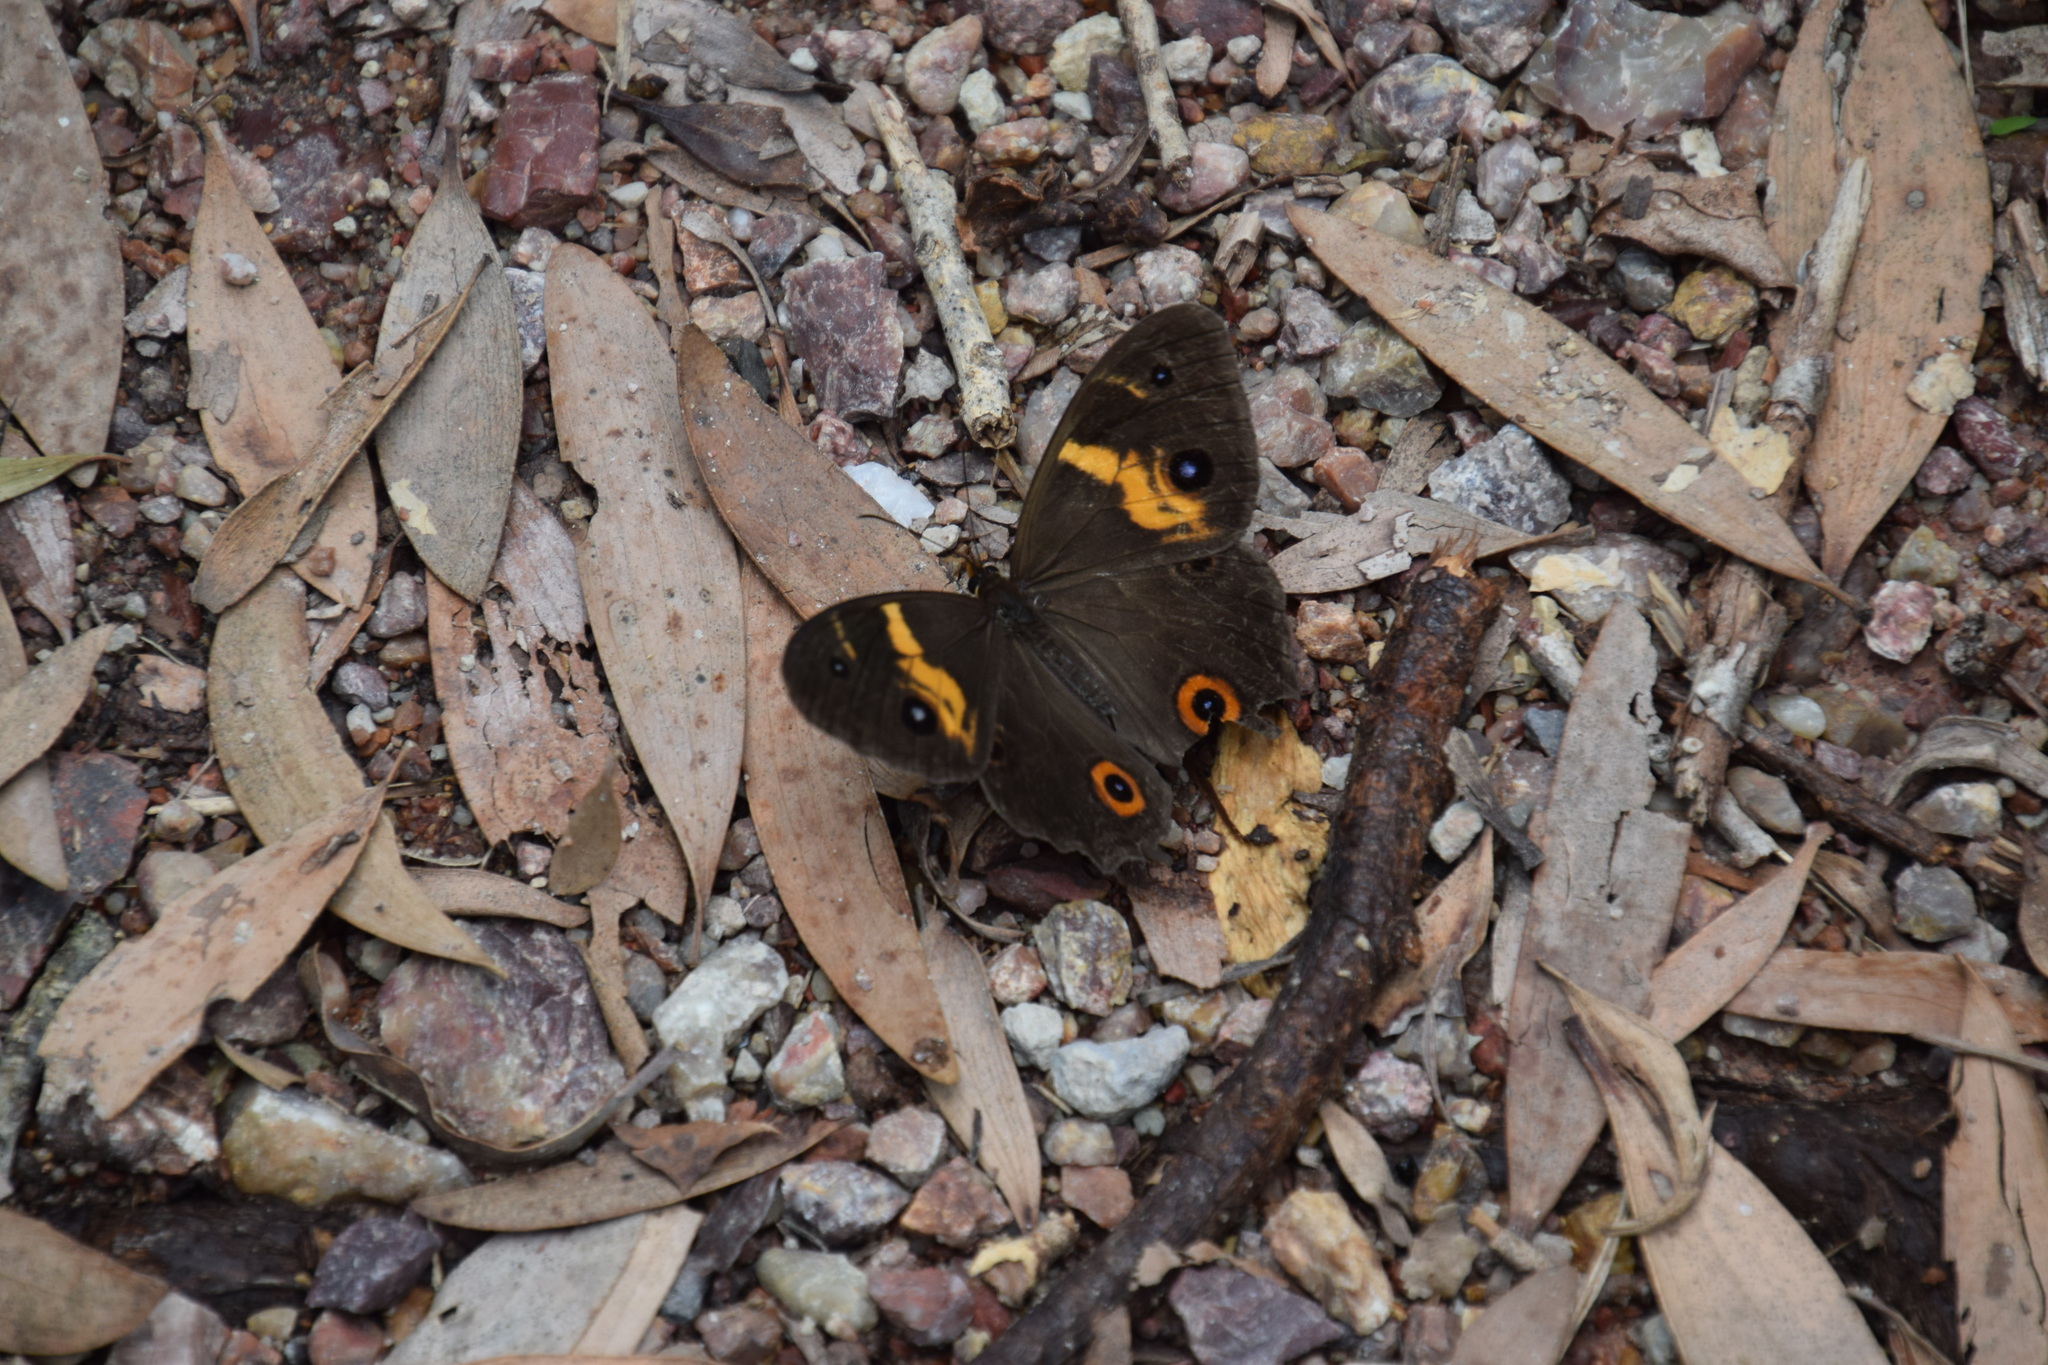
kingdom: Animalia
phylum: Arthropoda
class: Insecta
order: Lepidoptera
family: Nymphalidae
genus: Tisiphone
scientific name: Tisiphone abeona
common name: Swordgrass brown
